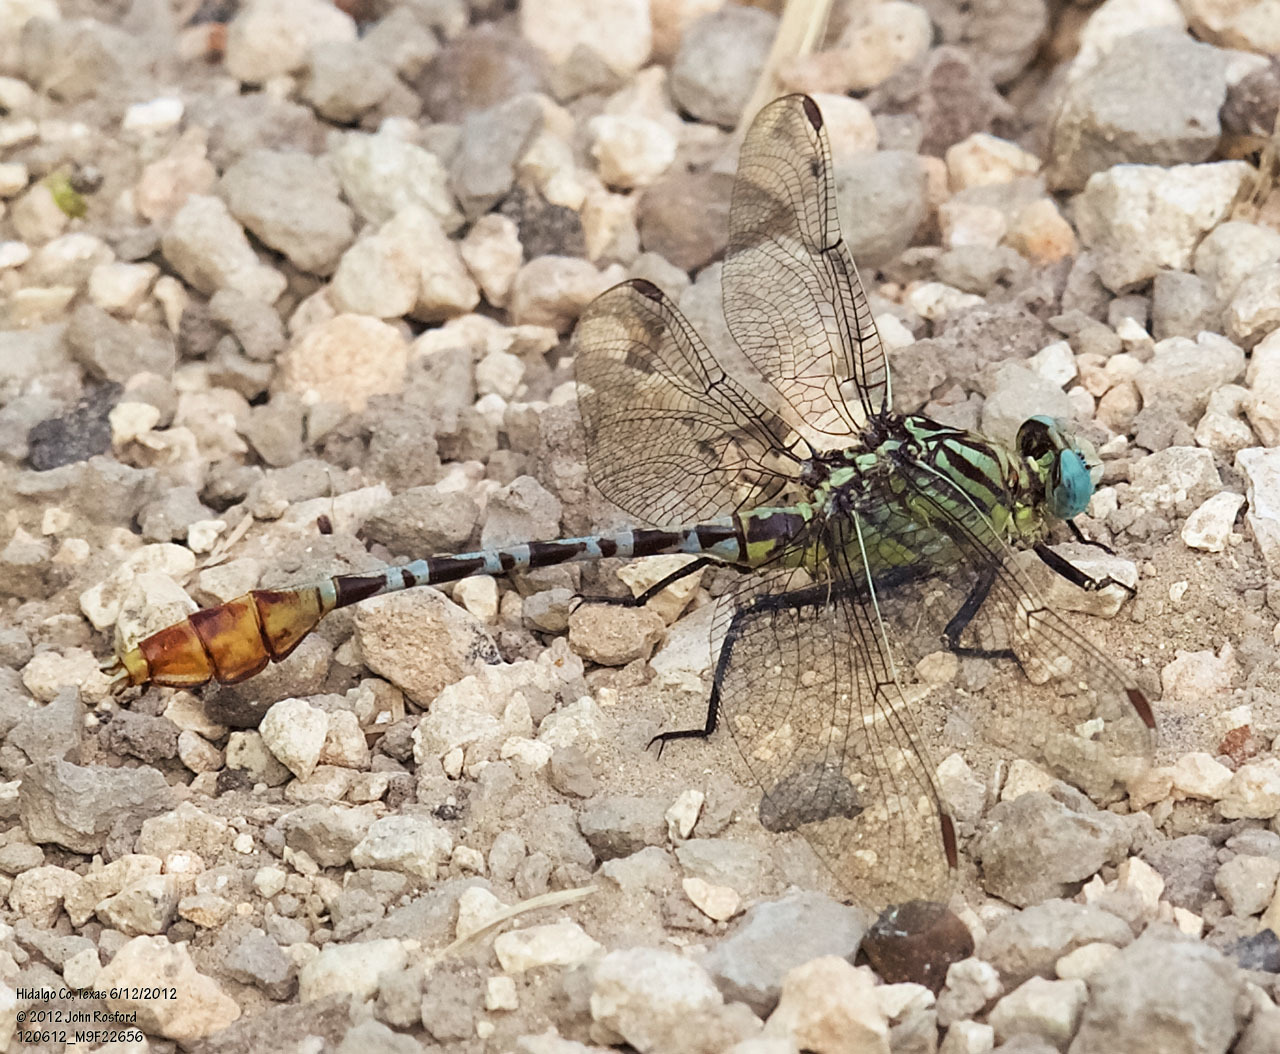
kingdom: Animalia
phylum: Arthropoda
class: Insecta
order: Odonata
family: Gomphidae
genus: Dromogomphus
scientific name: Dromogomphus spoliatus
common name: Flag-tailed spinyleg
